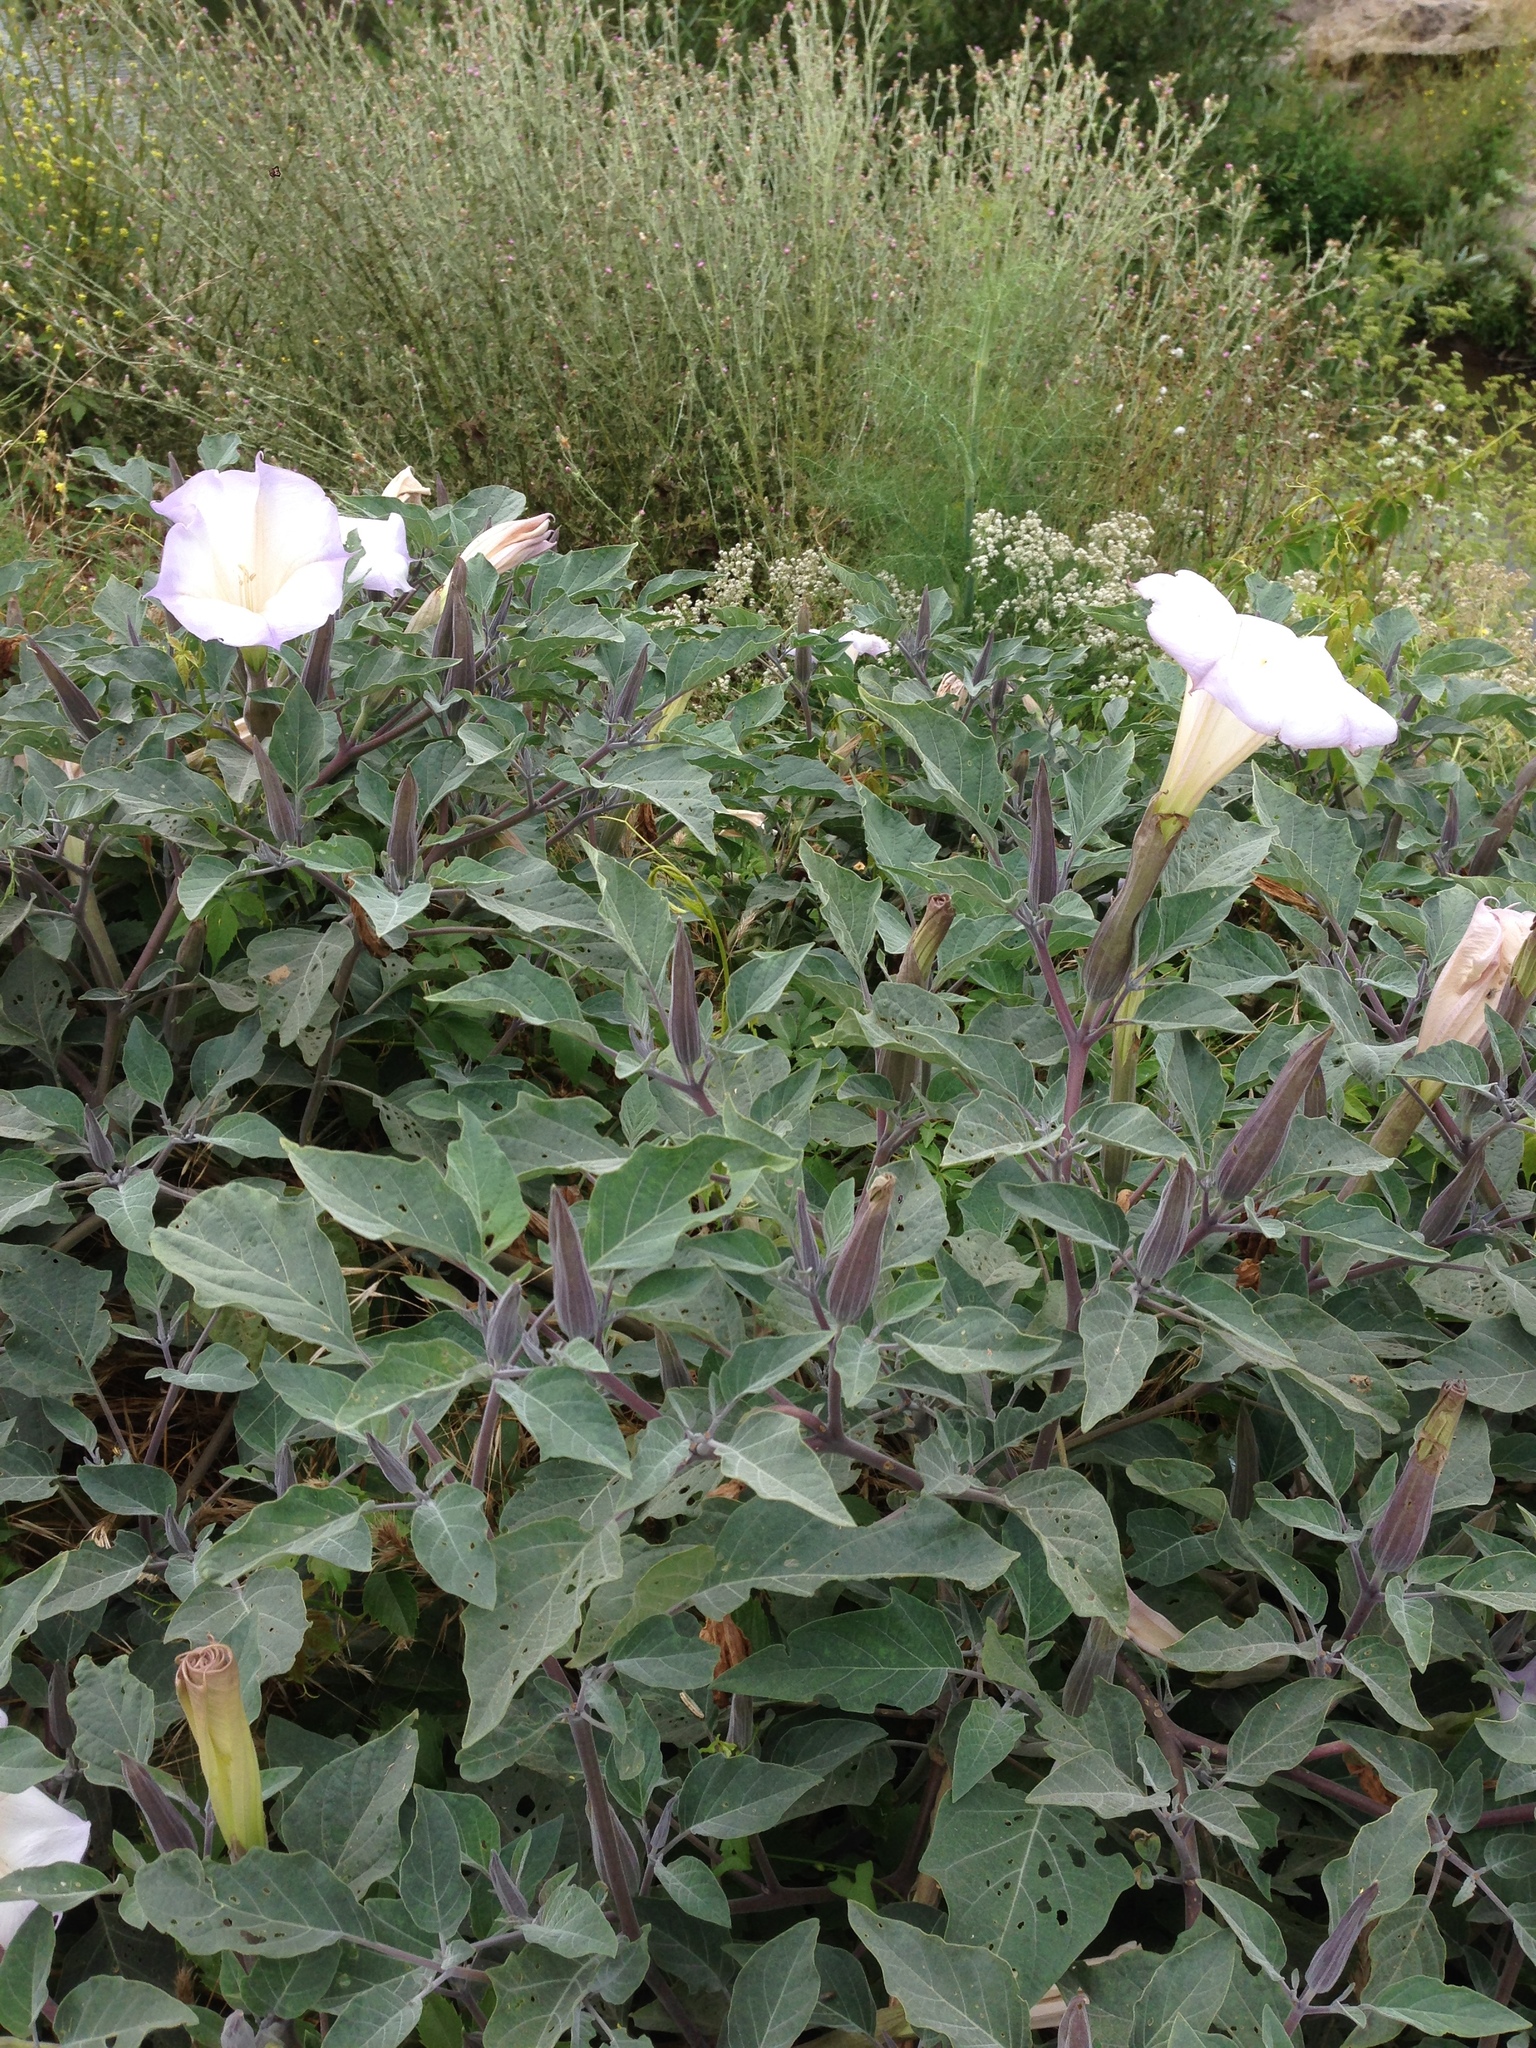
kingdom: Plantae
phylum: Tracheophyta
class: Magnoliopsida
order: Solanales
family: Solanaceae
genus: Datura
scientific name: Datura wrightii
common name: Sacred thorn-apple
